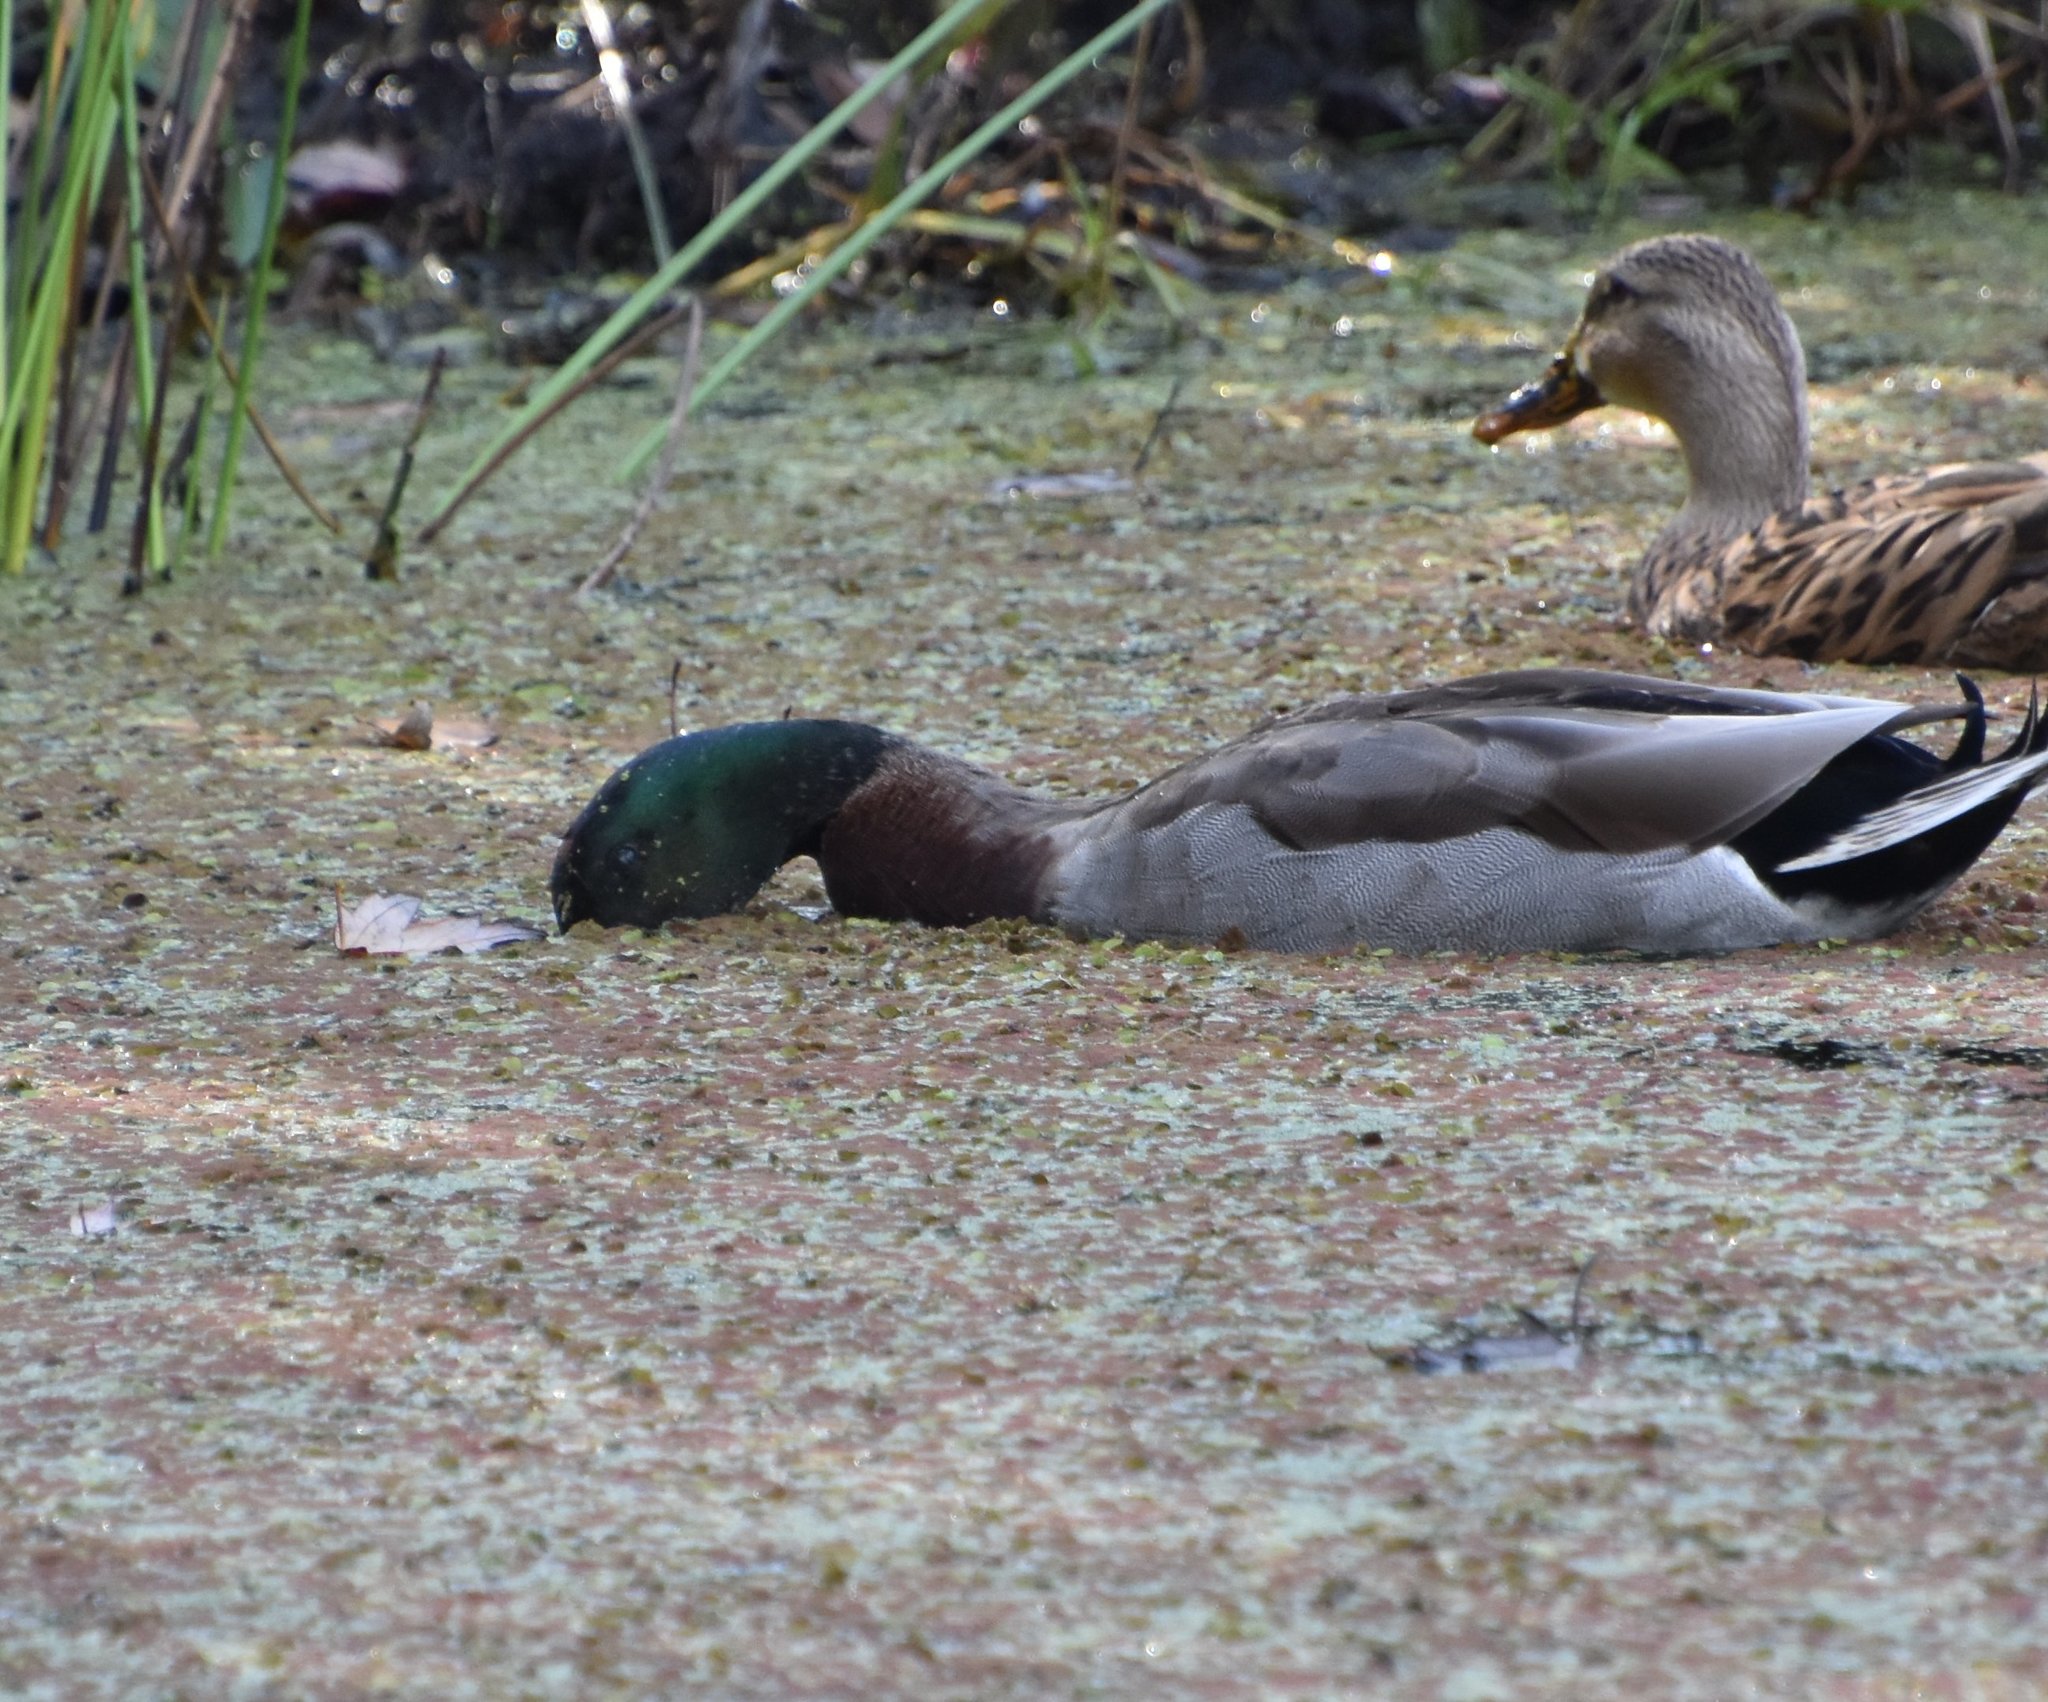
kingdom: Animalia
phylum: Chordata
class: Aves
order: Anseriformes
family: Anatidae
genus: Anas
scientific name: Anas platyrhynchos
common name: Mallard
